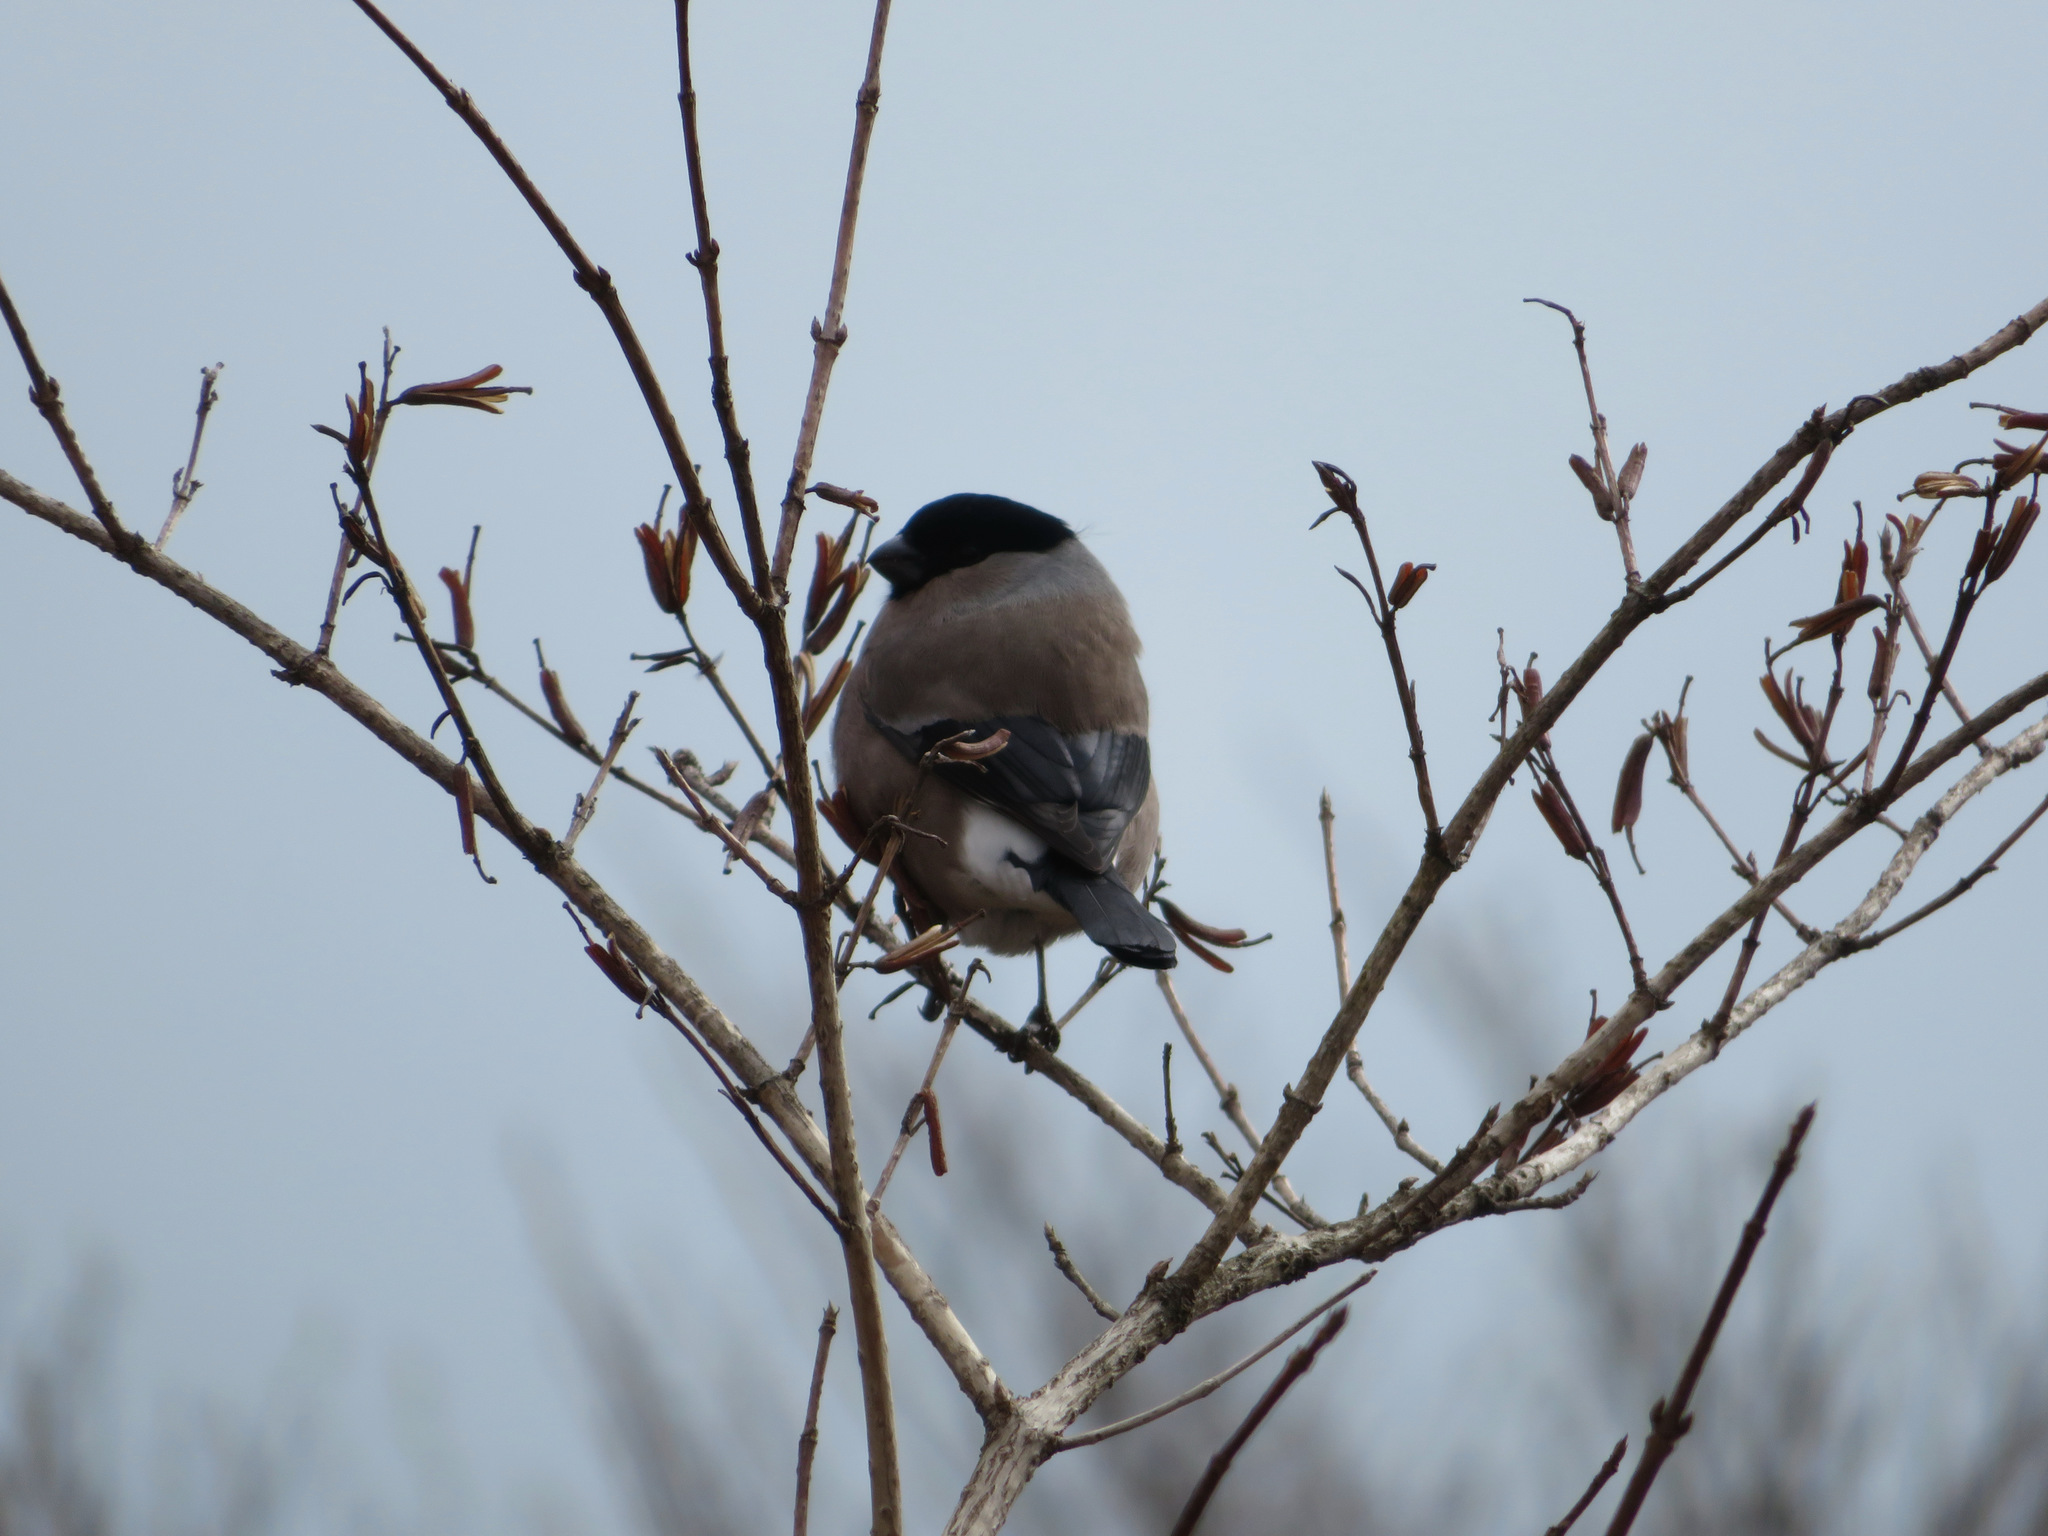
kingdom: Animalia
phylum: Chordata
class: Aves
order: Passeriformes
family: Fringillidae
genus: Pyrrhula
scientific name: Pyrrhula pyrrhula
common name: Eurasian bullfinch
